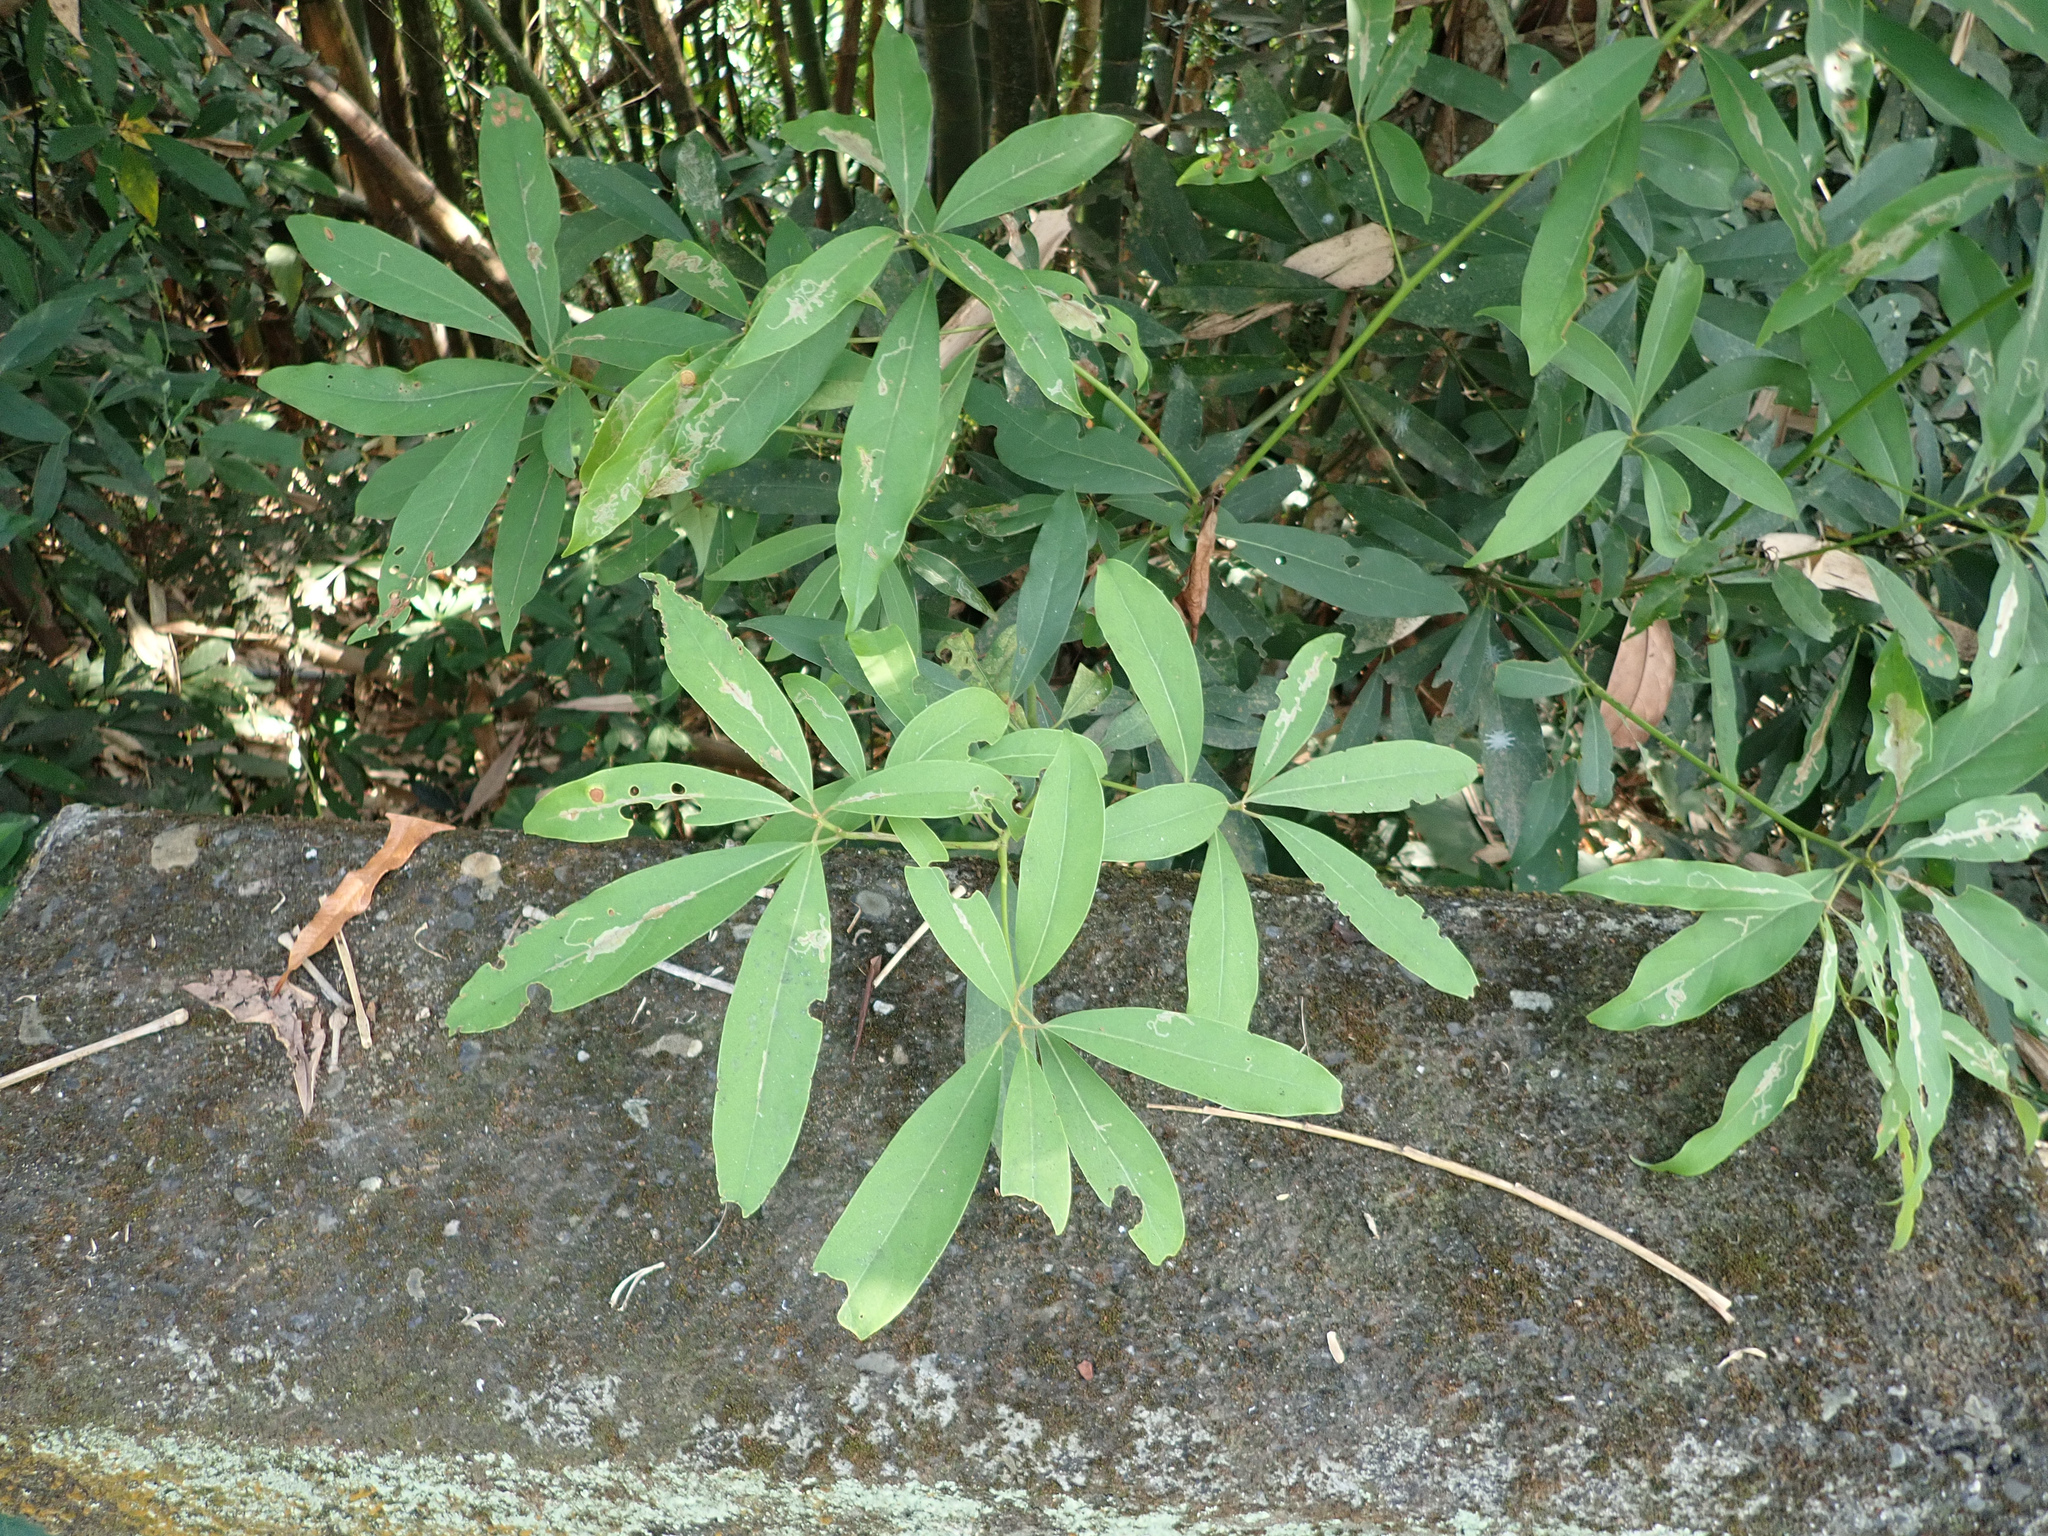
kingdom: Plantae
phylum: Tracheophyta
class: Magnoliopsida
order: Laurales
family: Lauraceae
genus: Machilus
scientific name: Machilus zuihoensis
